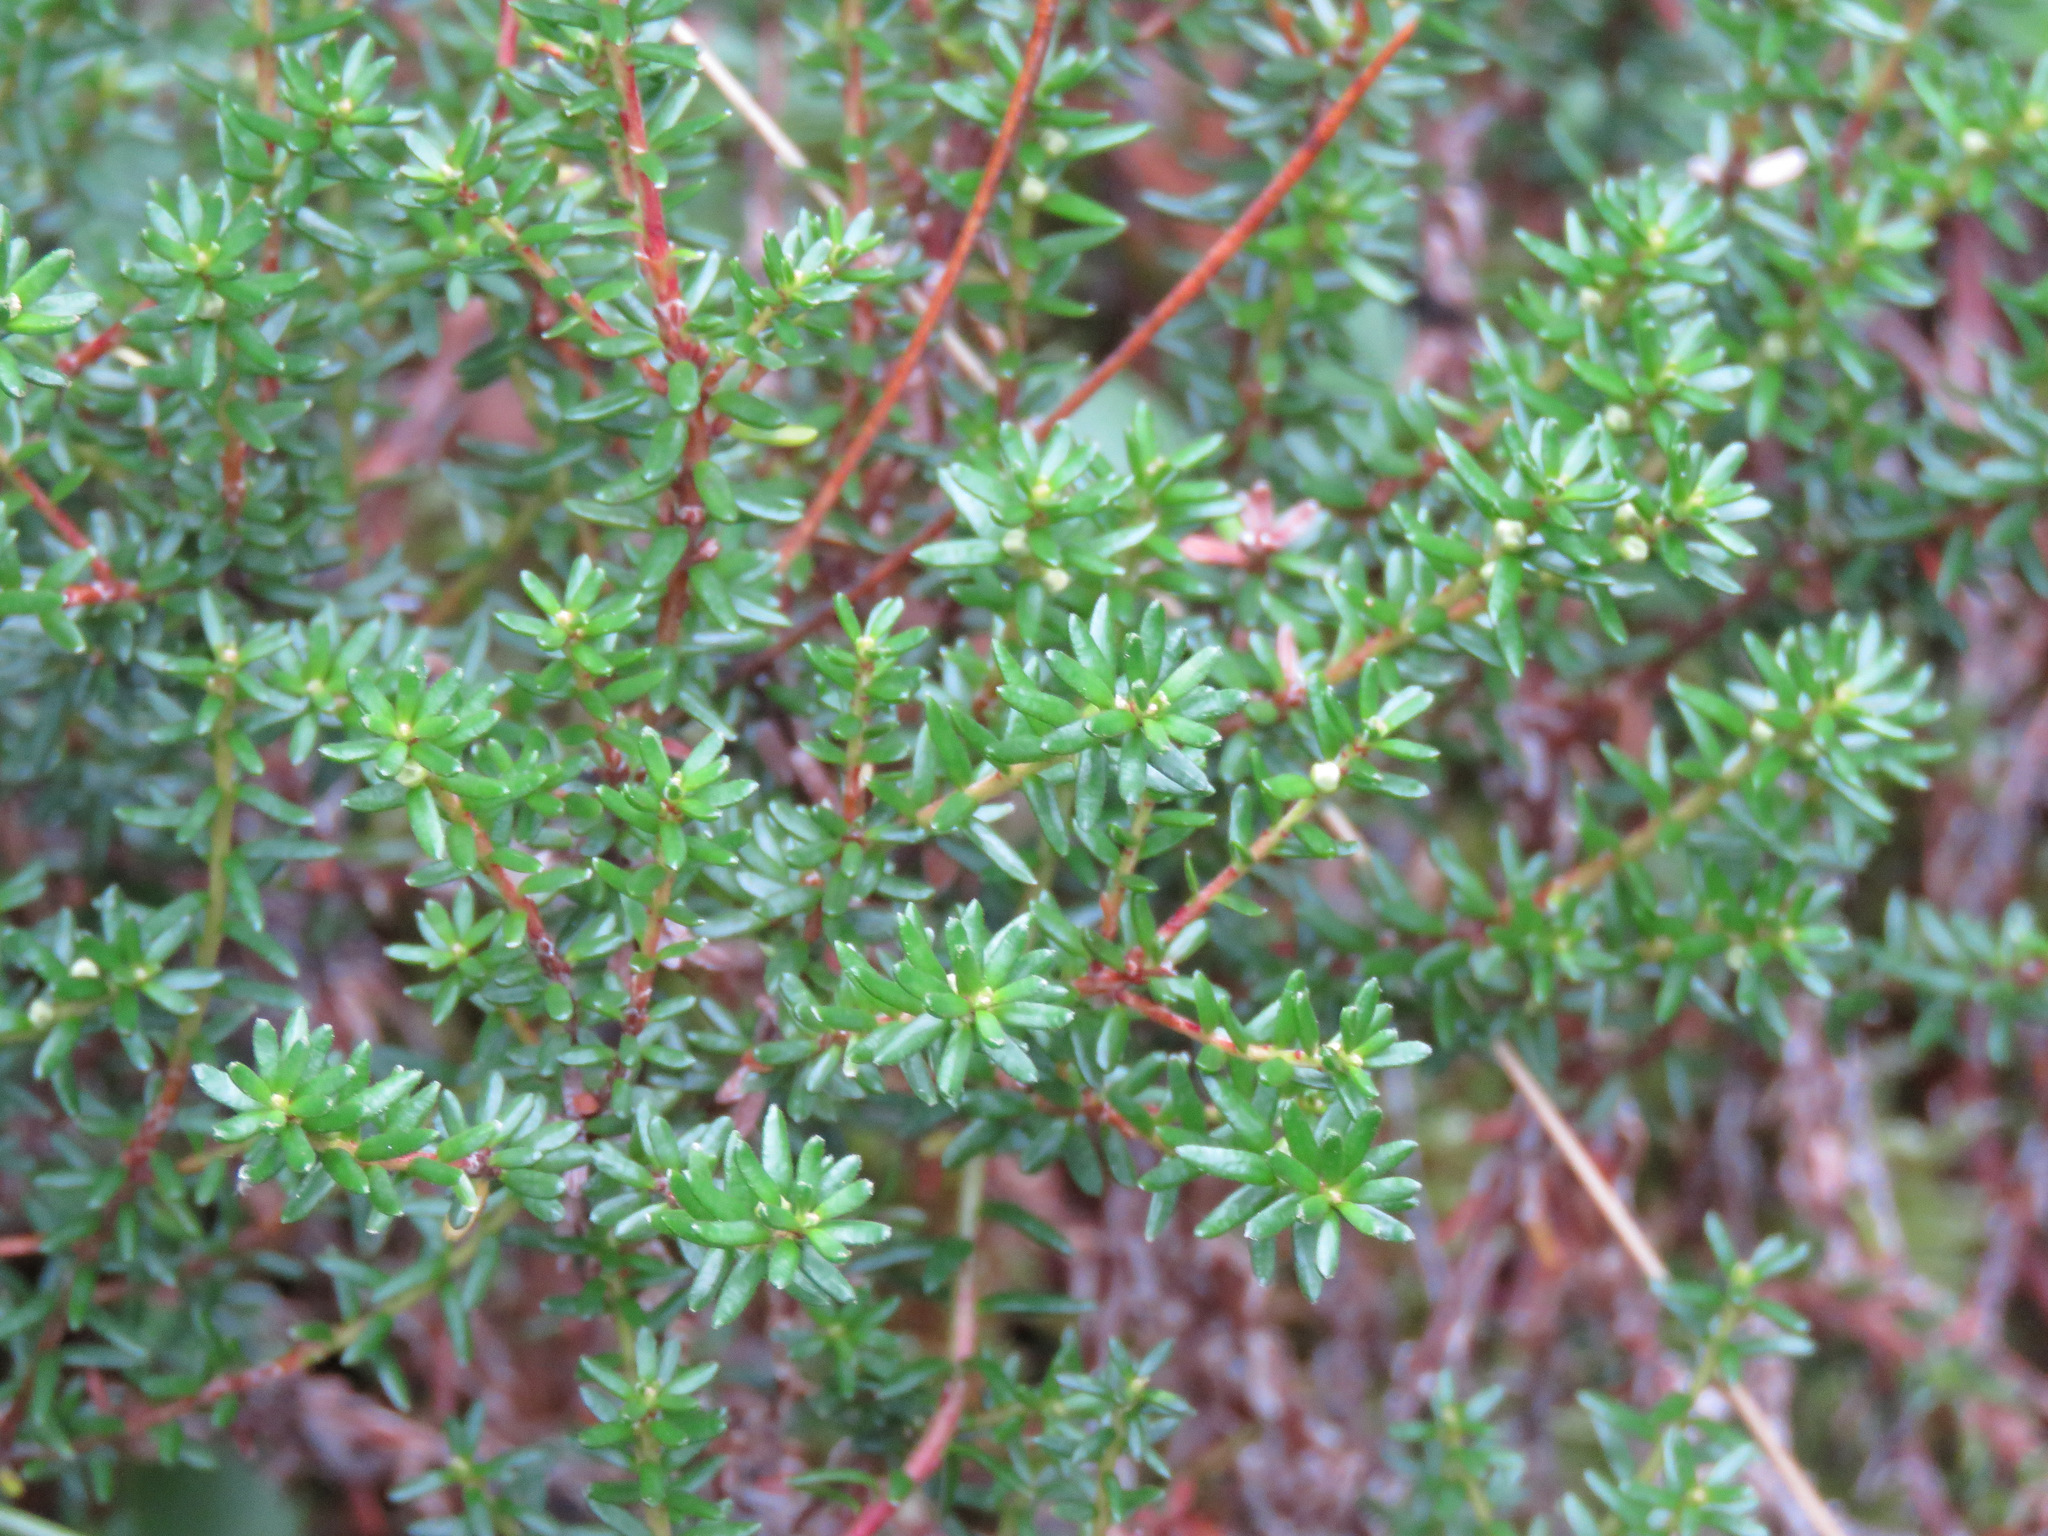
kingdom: Plantae
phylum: Tracheophyta
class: Magnoliopsida
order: Ericales
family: Ericaceae
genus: Empetrum
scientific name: Empetrum nigrum
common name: Black crowberry
